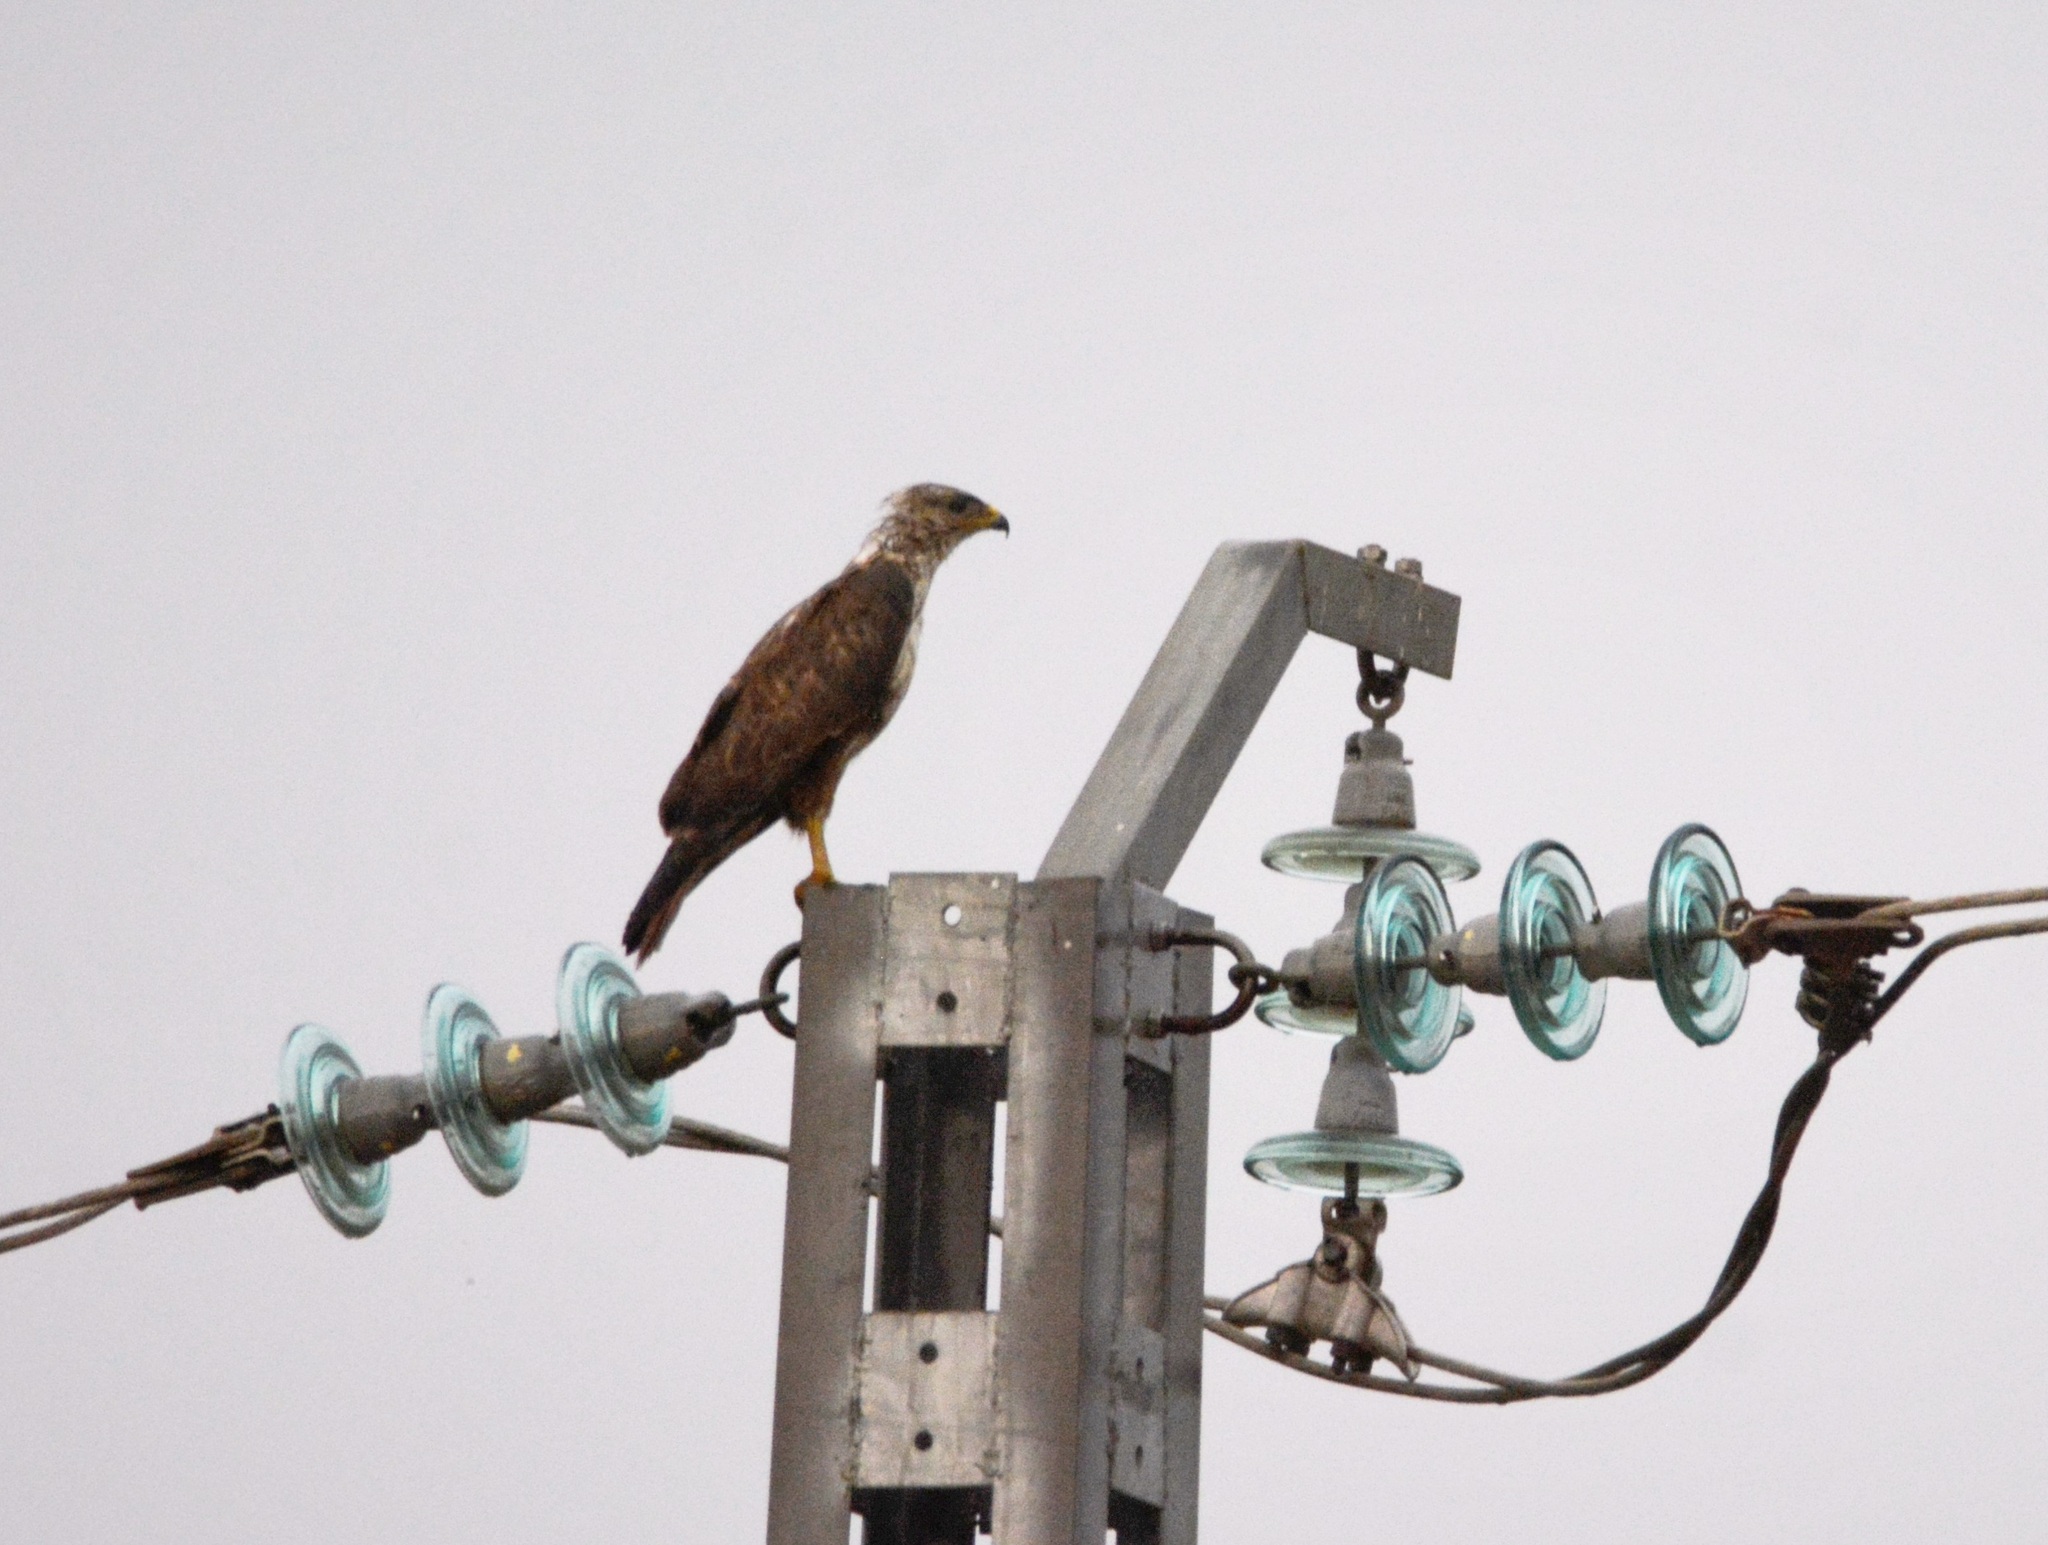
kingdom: Animalia
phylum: Chordata
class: Aves
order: Accipitriformes
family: Accipitridae
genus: Buteo
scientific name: Buteo rufinus
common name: Long-legged buzzard
